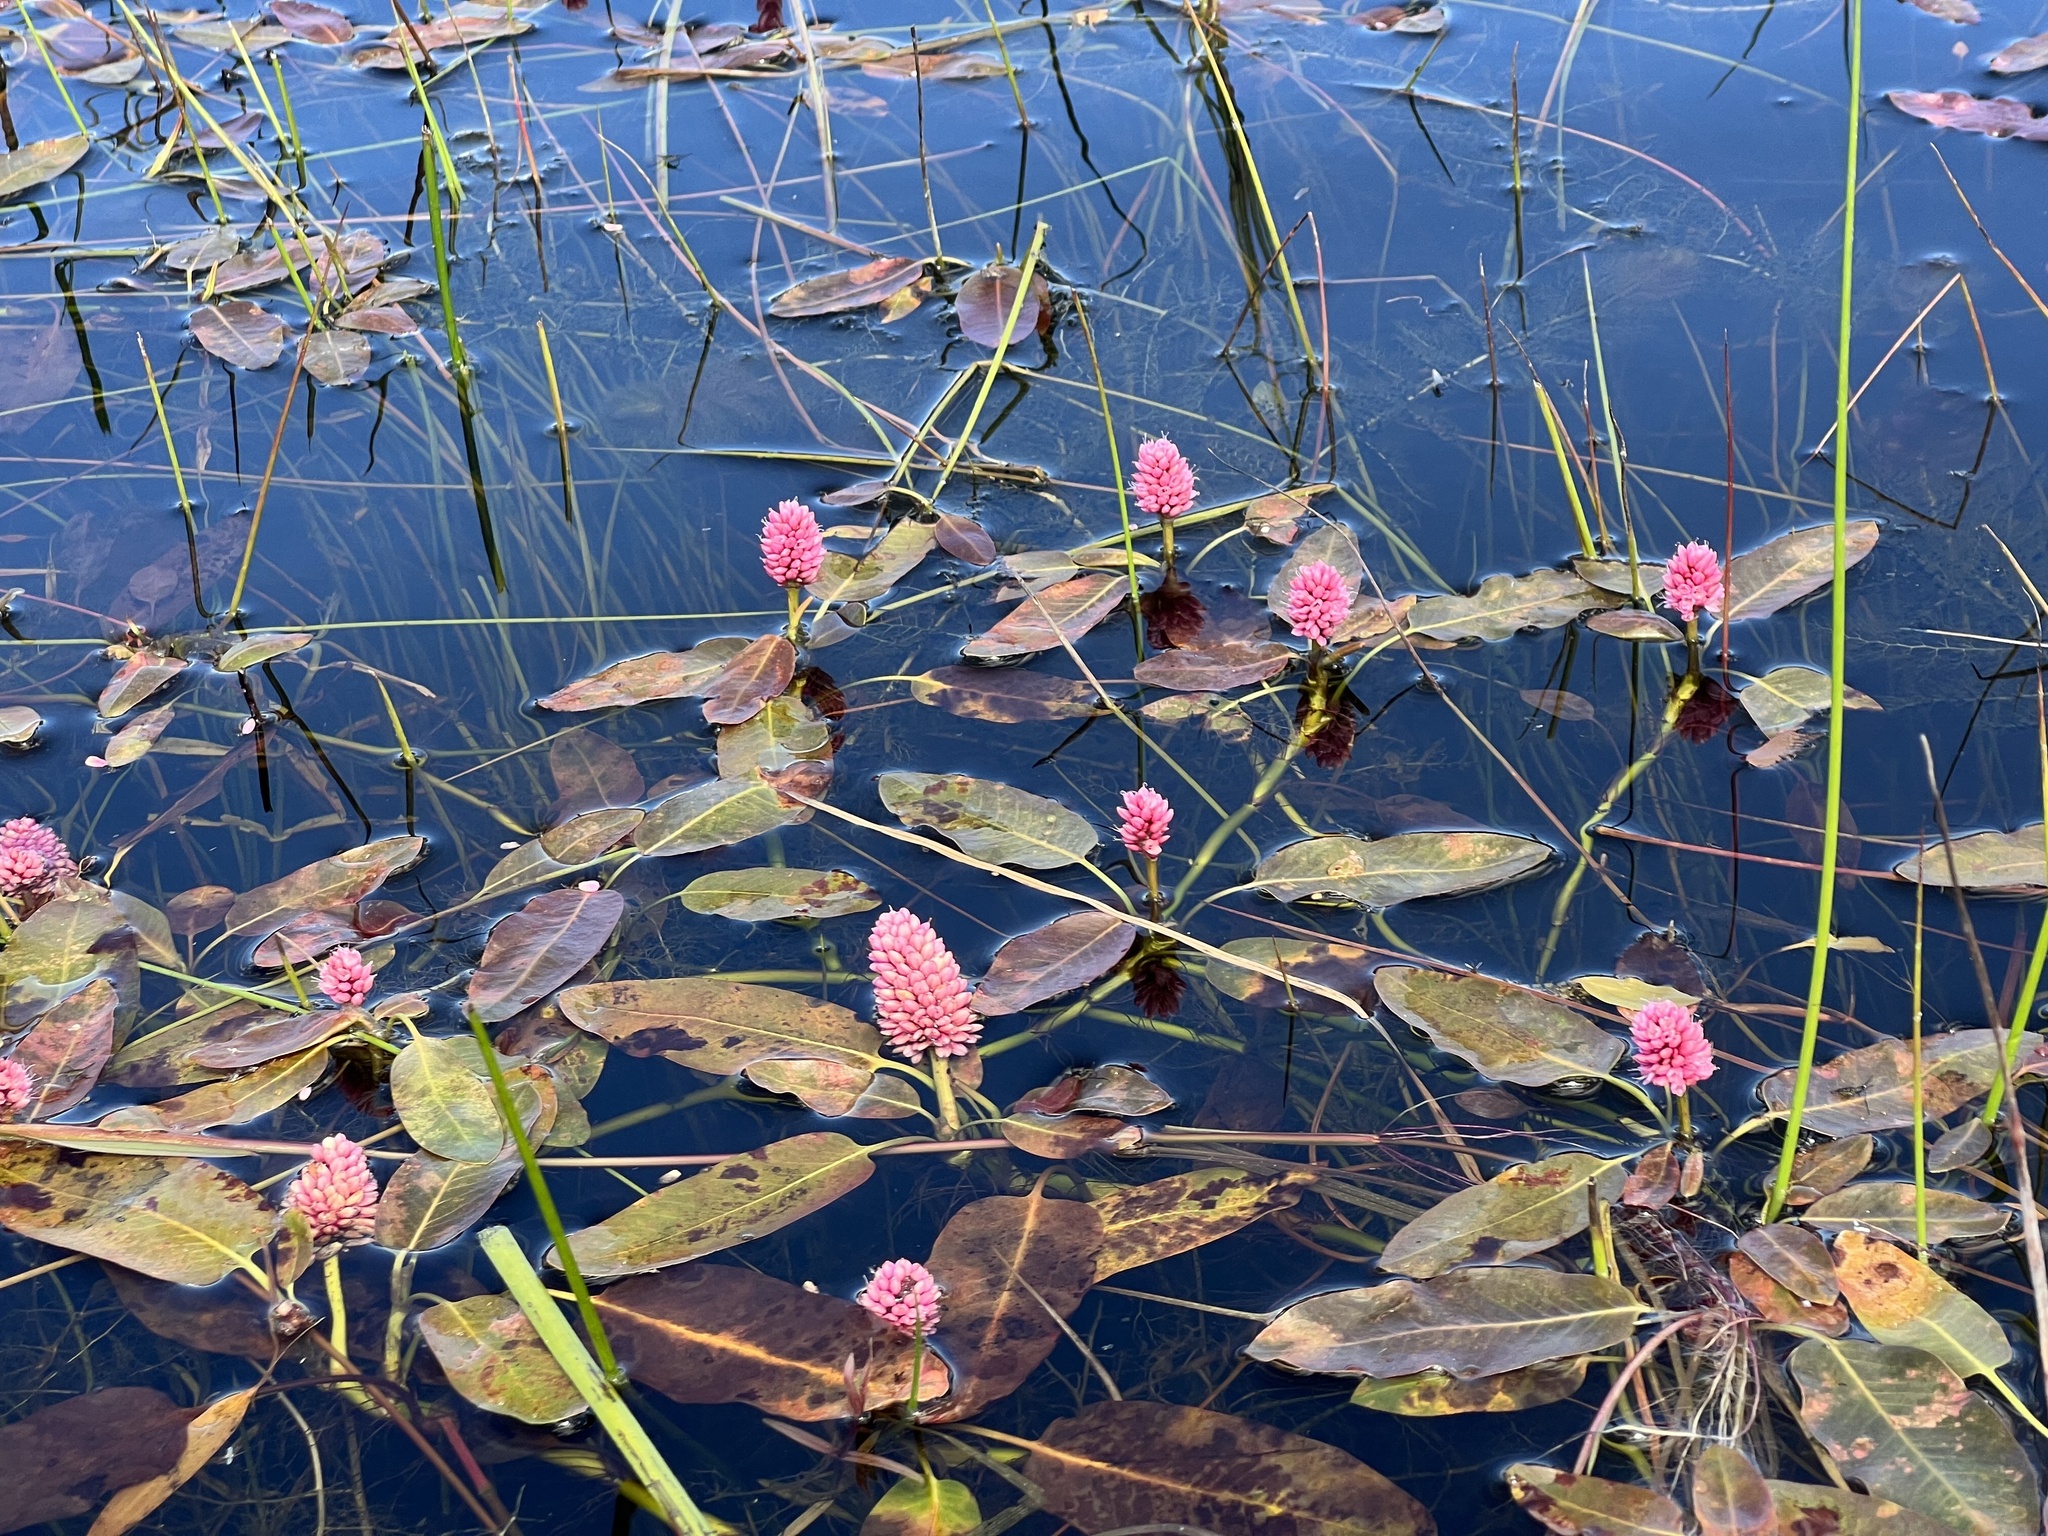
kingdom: Plantae
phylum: Tracheophyta
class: Magnoliopsida
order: Caryophyllales
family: Polygonaceae
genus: Persicaria
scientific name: Persicaria amphibia
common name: Amphibious bistort
